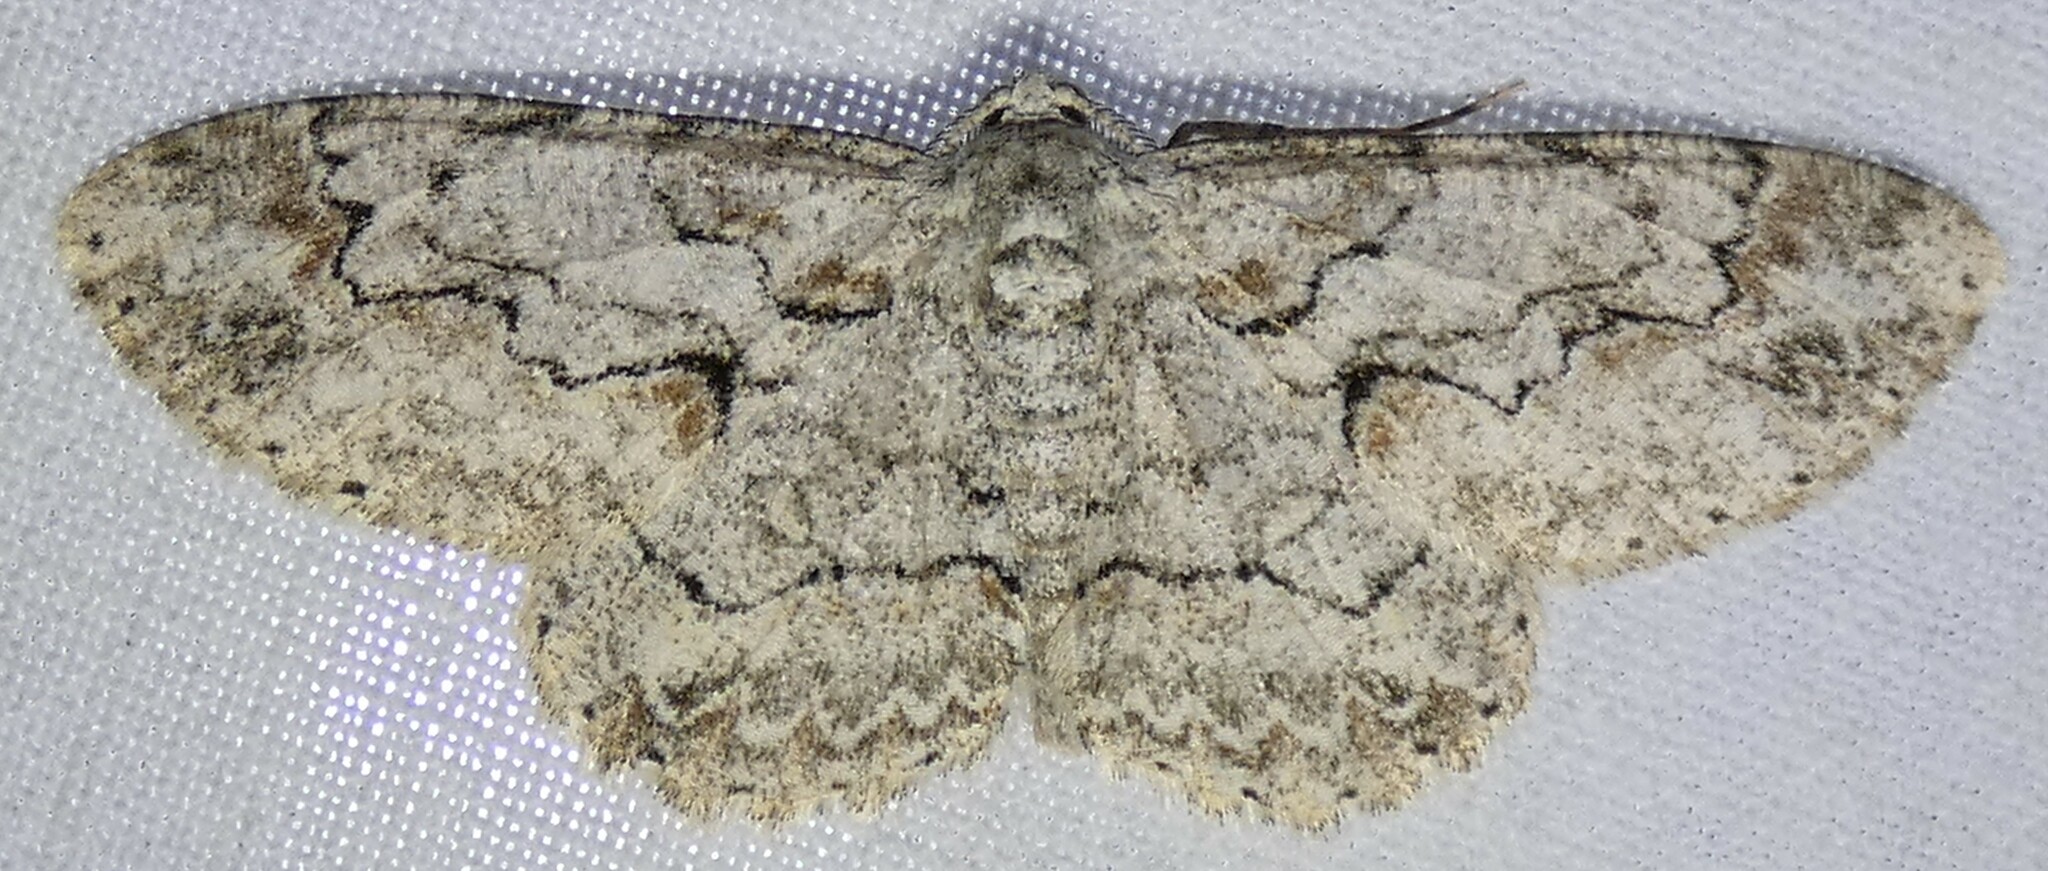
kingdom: Animalia
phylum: Arthropoda
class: Insecta
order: Lepidoptera
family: Geometridae
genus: Iridopsis
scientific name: Iridopsis defectaria
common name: Brown-shaded gray
